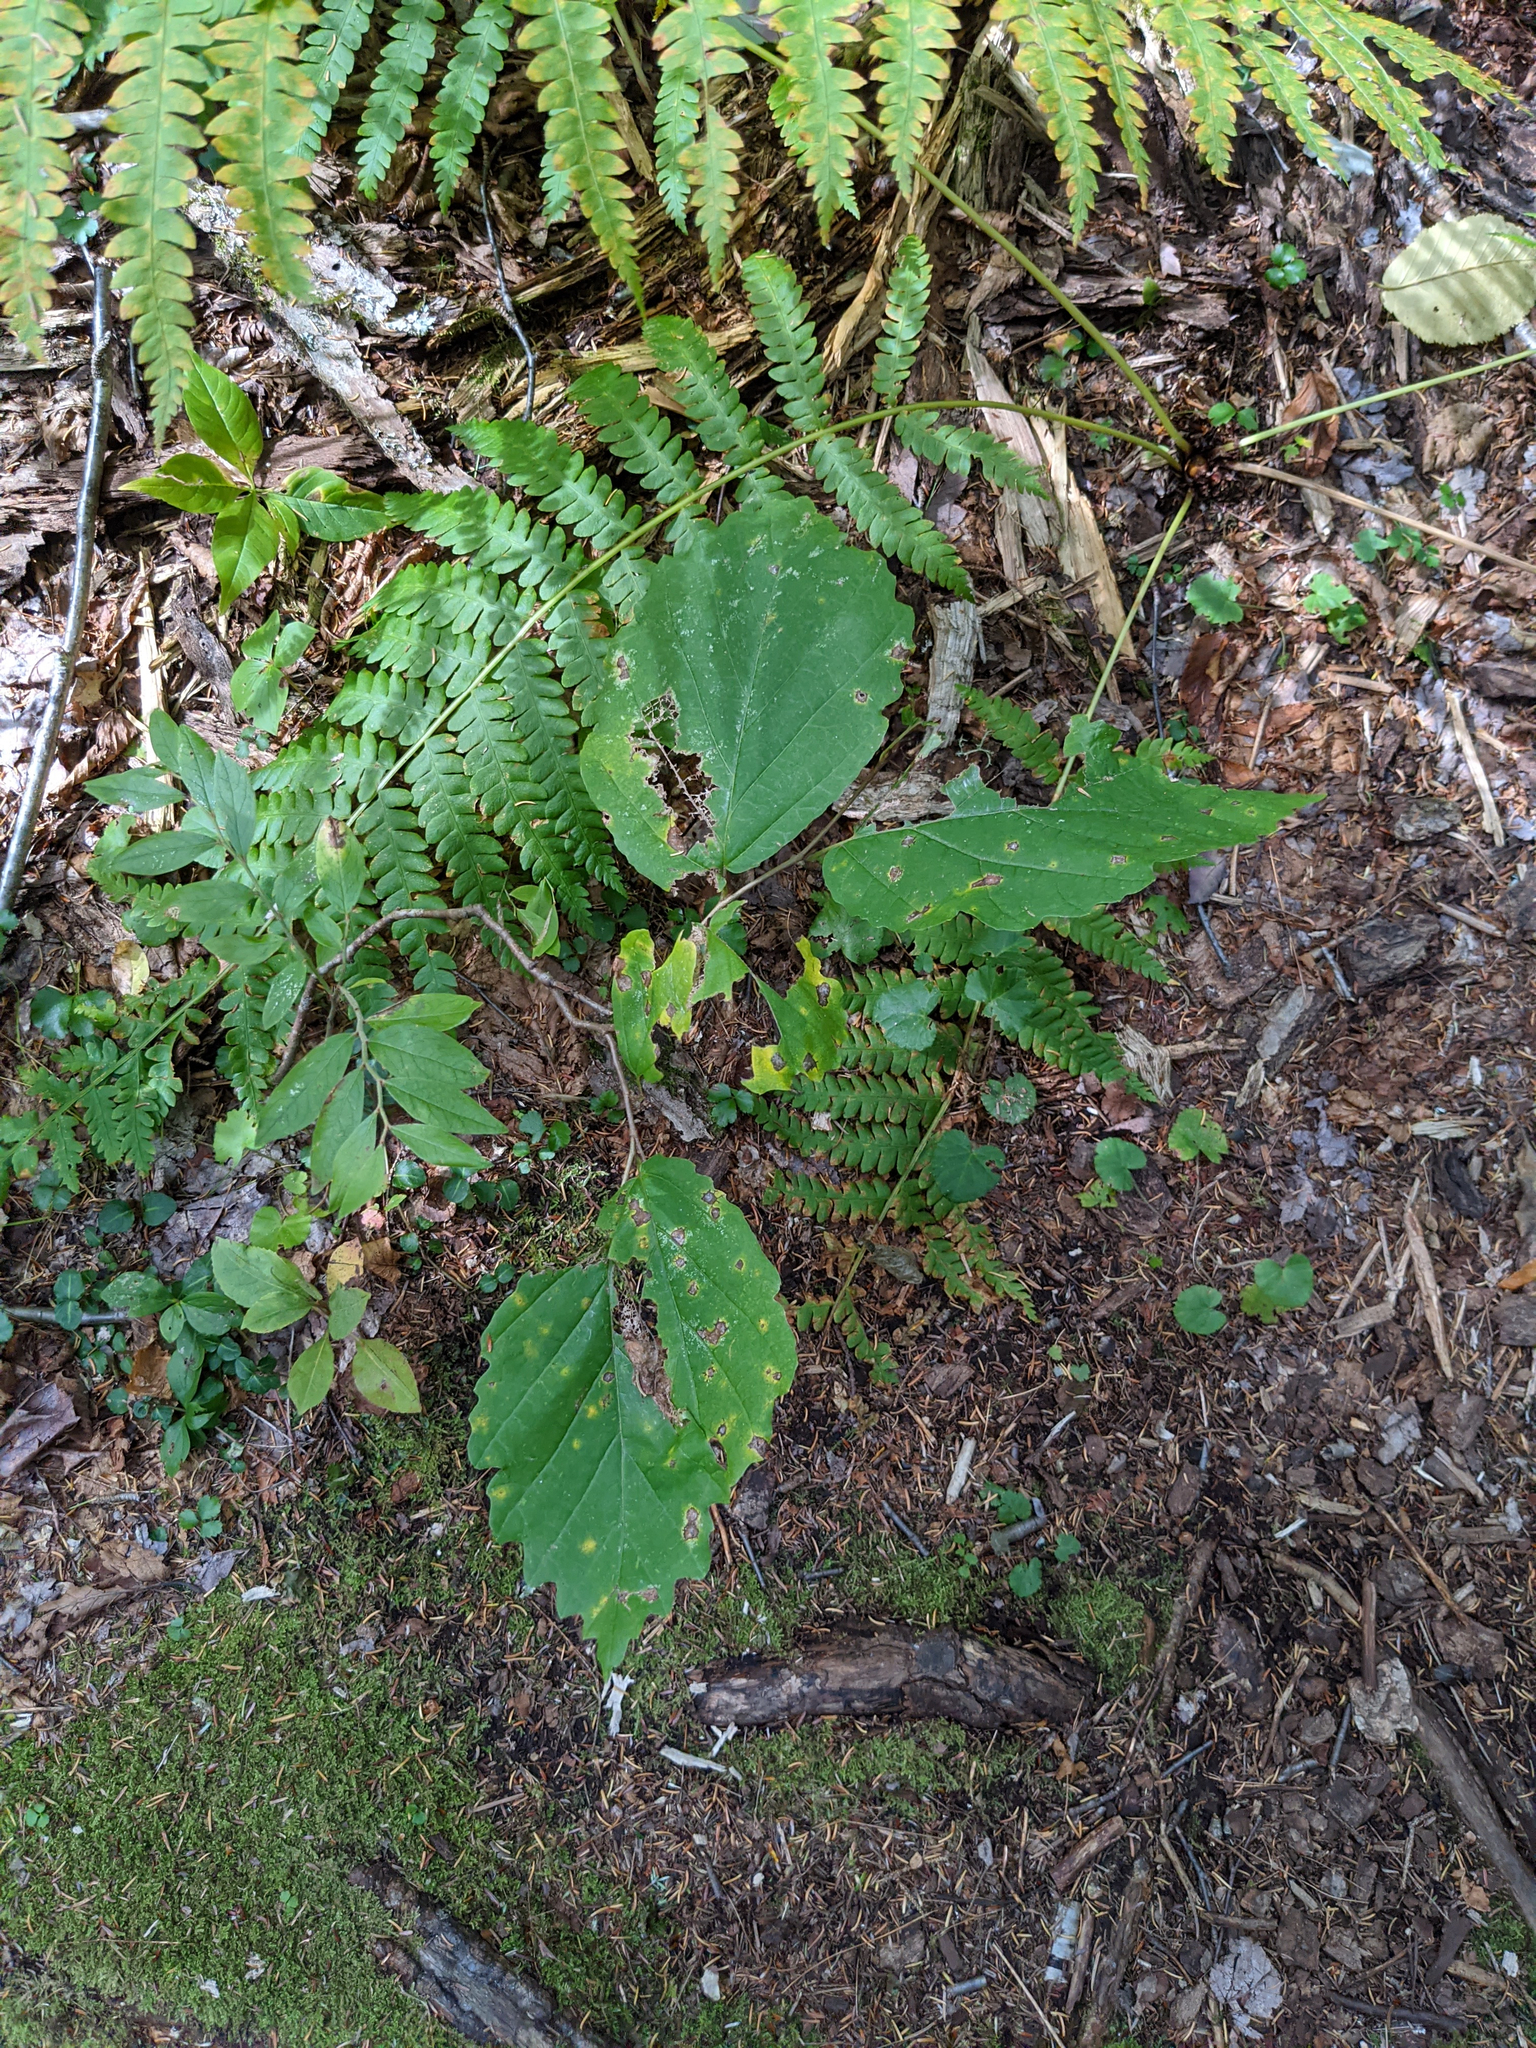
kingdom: Plantae
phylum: Tracheophyta
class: Magnoliopsida
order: Saxifragales
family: Hamamelidaceae
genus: Hamamelis
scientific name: Hamamelis virginiana
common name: Witch-hazel
